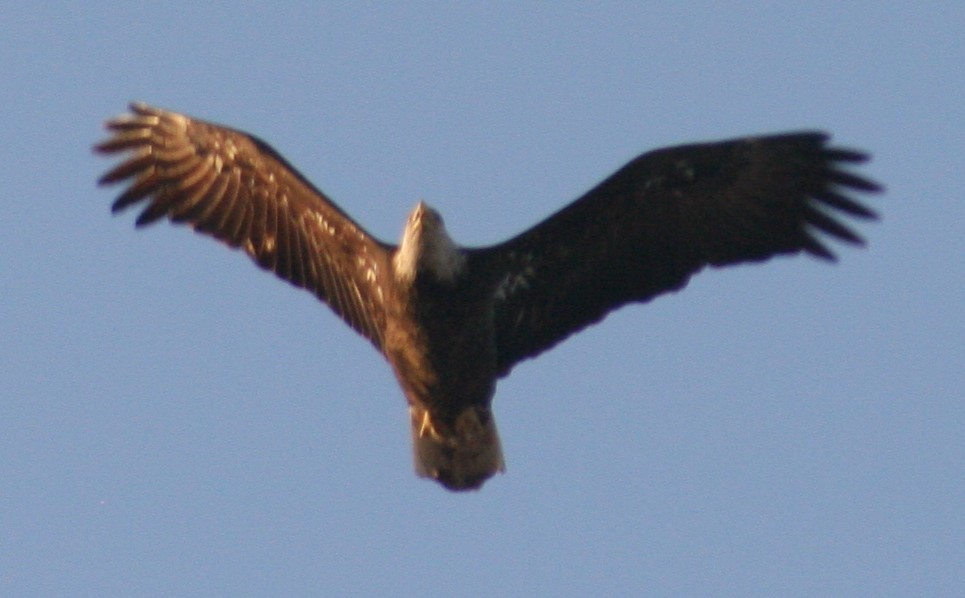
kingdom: Animalia
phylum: Chordata
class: Aves
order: Accipitriformes
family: Accipitridae
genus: Haliaeetus
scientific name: Haliaeetus leucocephalus
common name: Bald eagle
